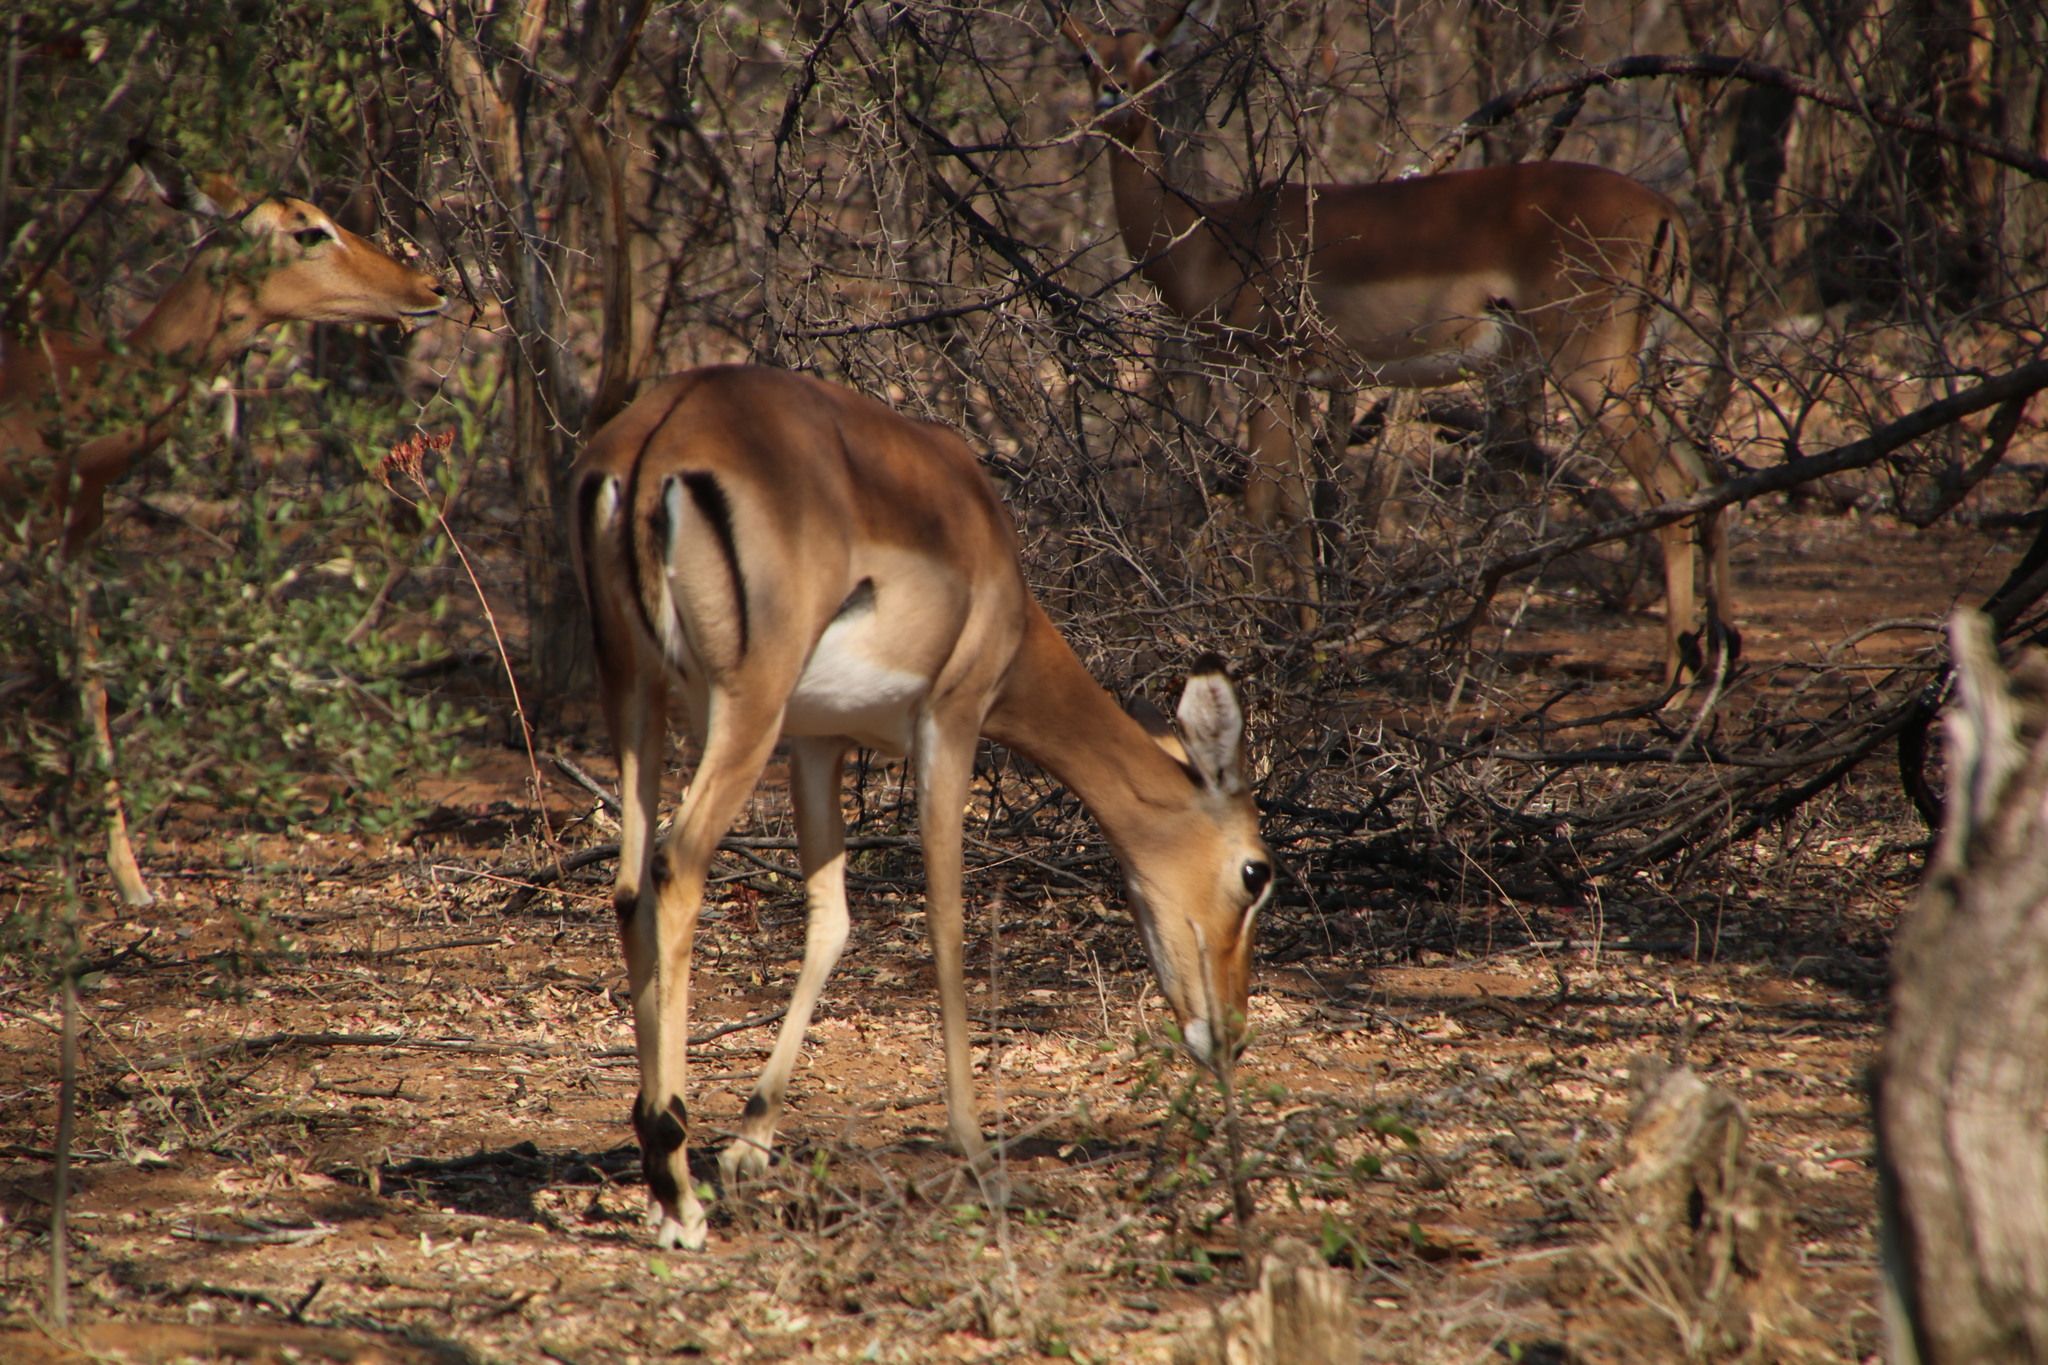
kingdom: Animalia
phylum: Chordata
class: Mammalia
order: Artiodactyla
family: Bovidae
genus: Aepyceros
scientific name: Aepyceros melampus
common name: Impala
